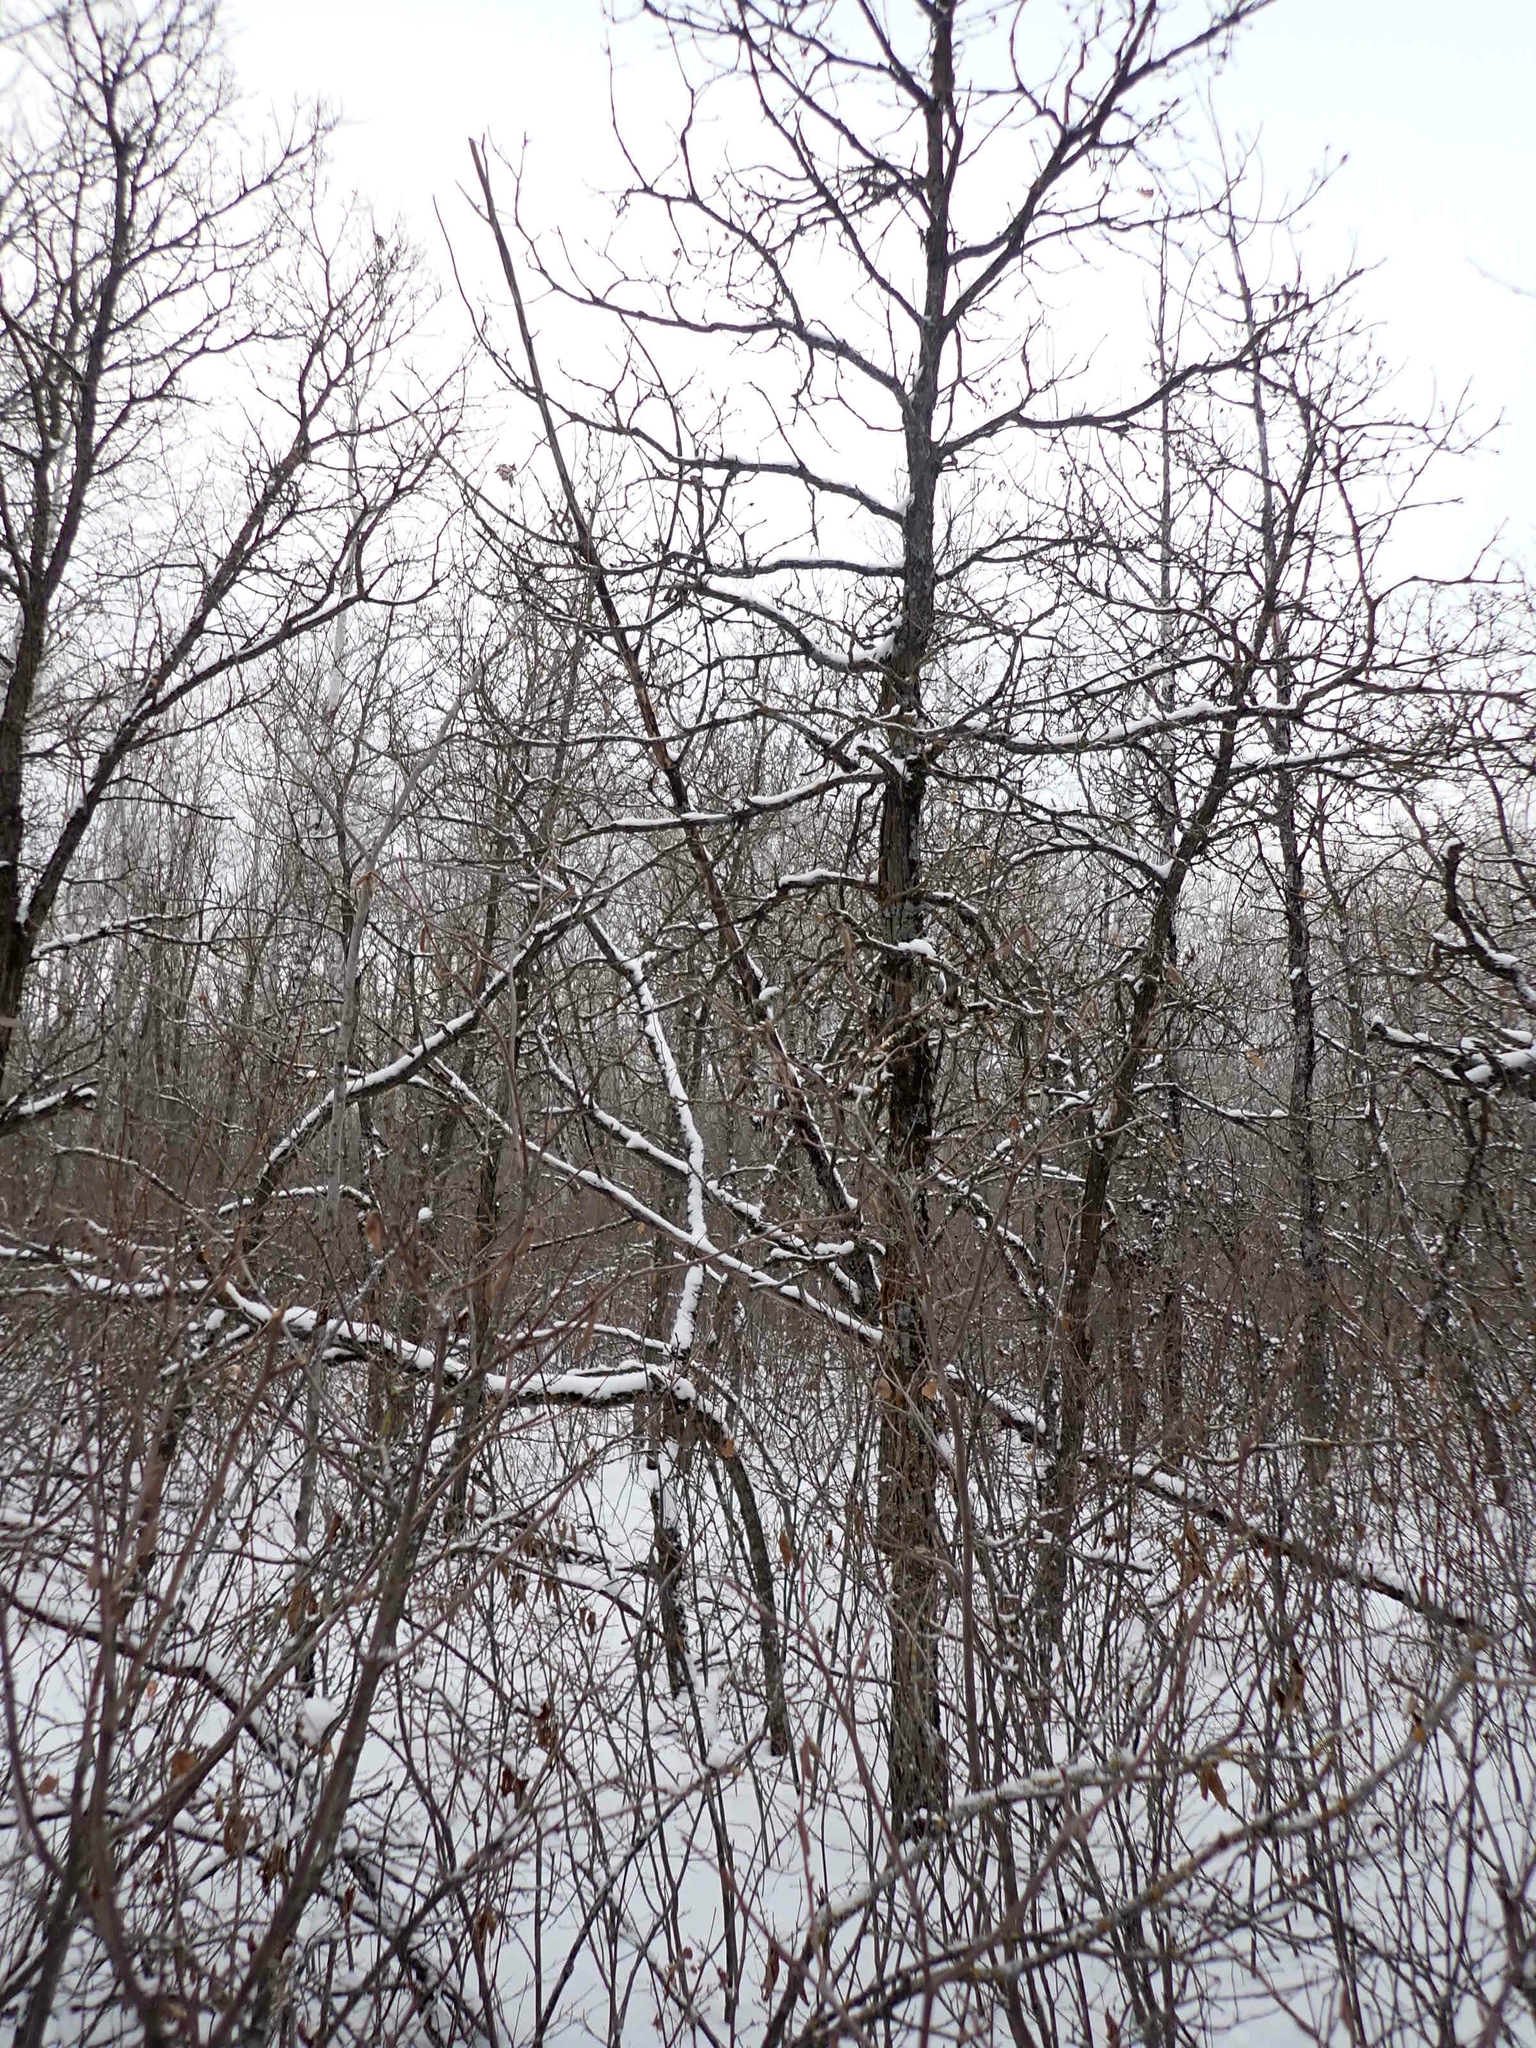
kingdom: Plantae
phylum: Tracheophyta
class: Magnoliopsida
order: Fagales
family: Fagaceae
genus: Quercus
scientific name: Quercus macrocarpa
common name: Bur oak
